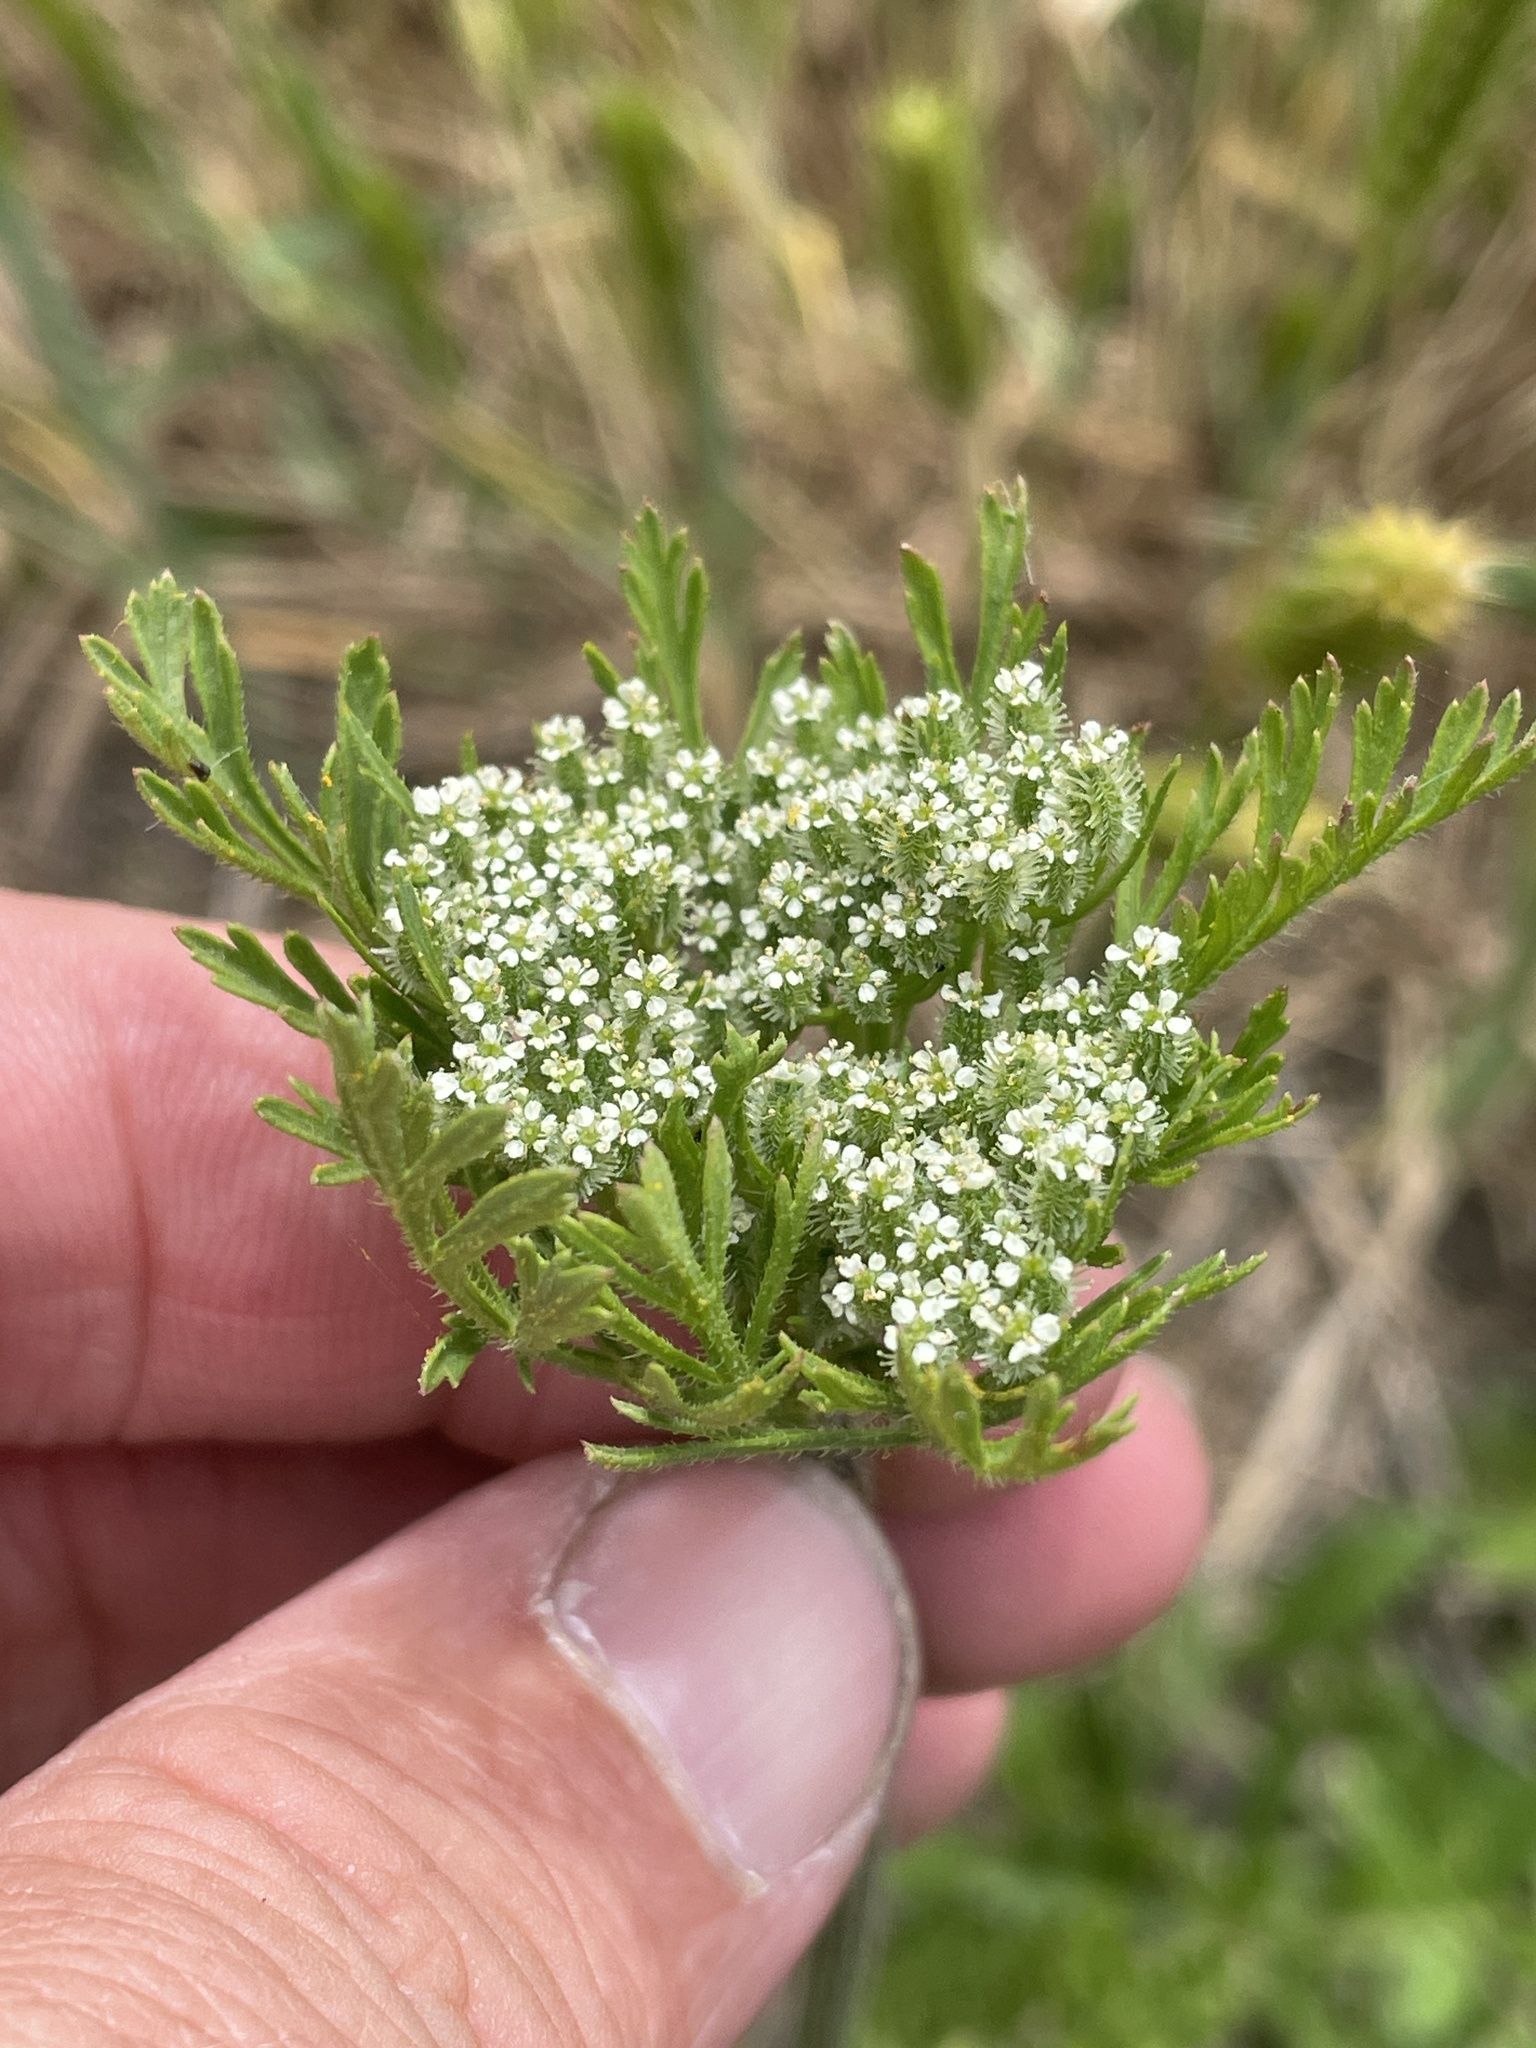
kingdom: Plantae
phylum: Tracheophyta
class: Magnoliopsida
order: Apiales
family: Apiaceae
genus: Daucus
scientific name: Daucus pusillus
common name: Southwest wild carrot
